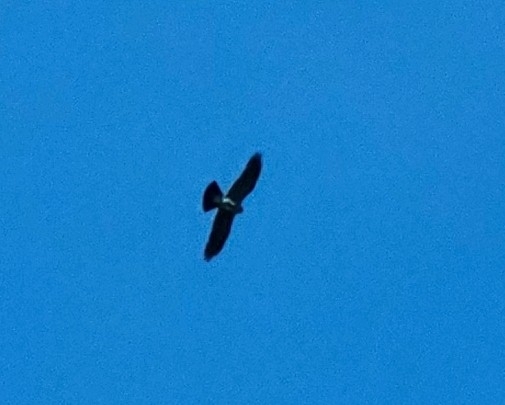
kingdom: Animalia
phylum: Chordata
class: Aves
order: Accipitriformes
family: Accipitridae
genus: Ictinia
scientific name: Ictinia mississippiensis
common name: Mississippi kite
